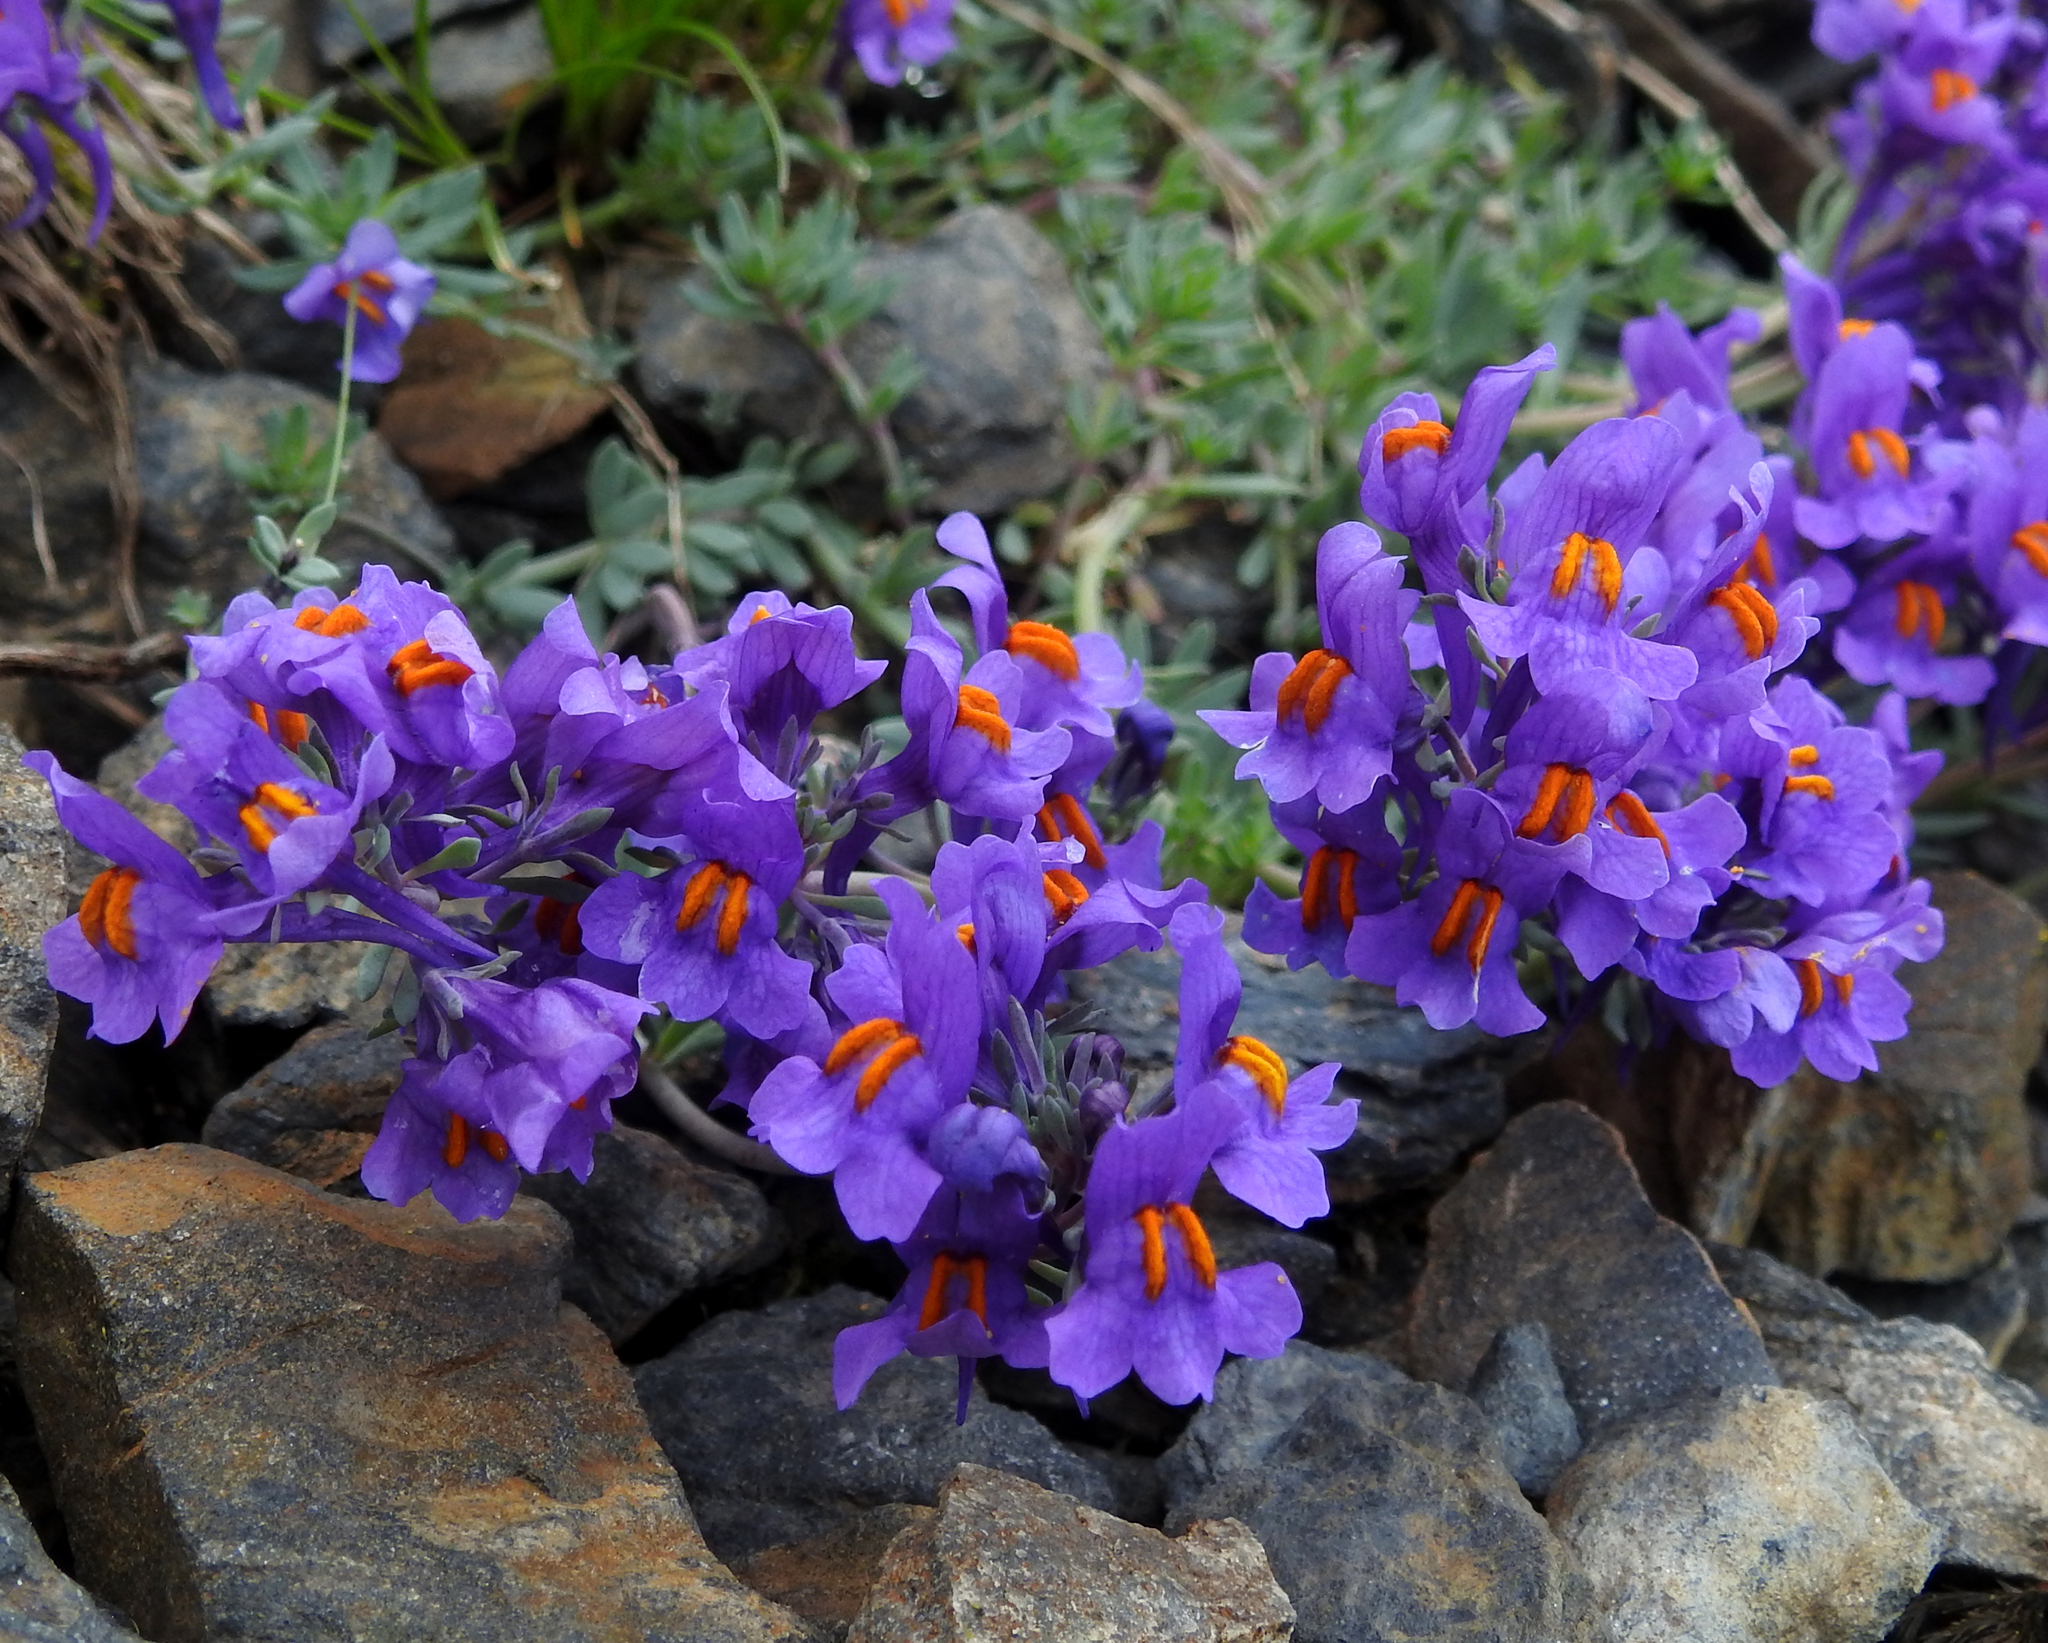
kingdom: Plantae
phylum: Tracheophyta
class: Magnoliopsida
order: Lamiales
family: Plantaginaceae
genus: Linaria
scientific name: Linaria alpina
